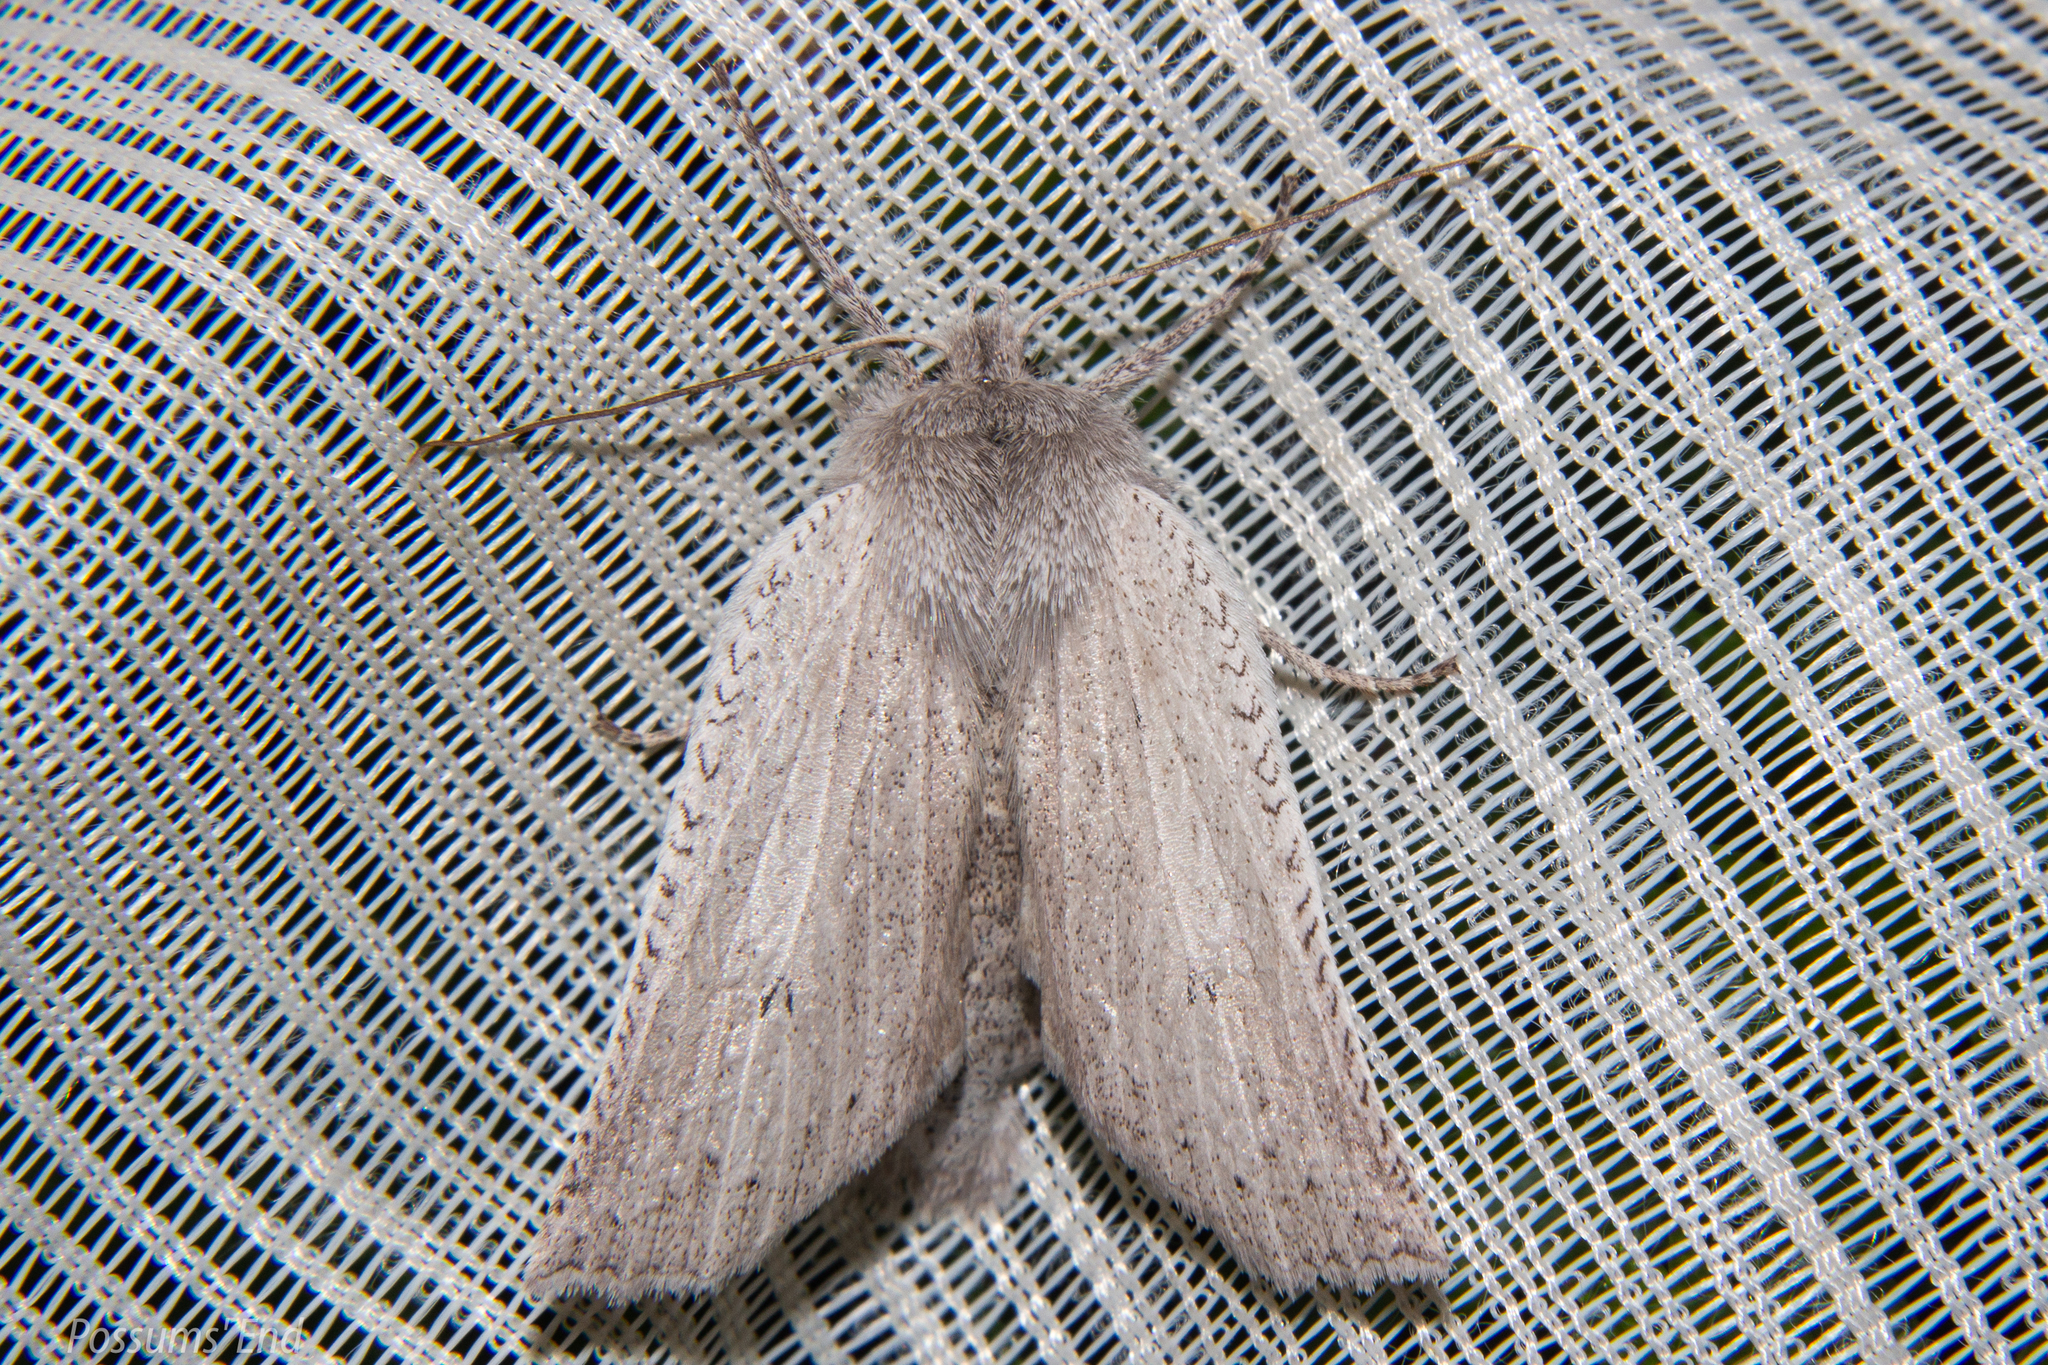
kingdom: Animalia
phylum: Arthropoda
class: Insecta
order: Lepidoptera
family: Geometridae
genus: Declana
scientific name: Declana leptomera
